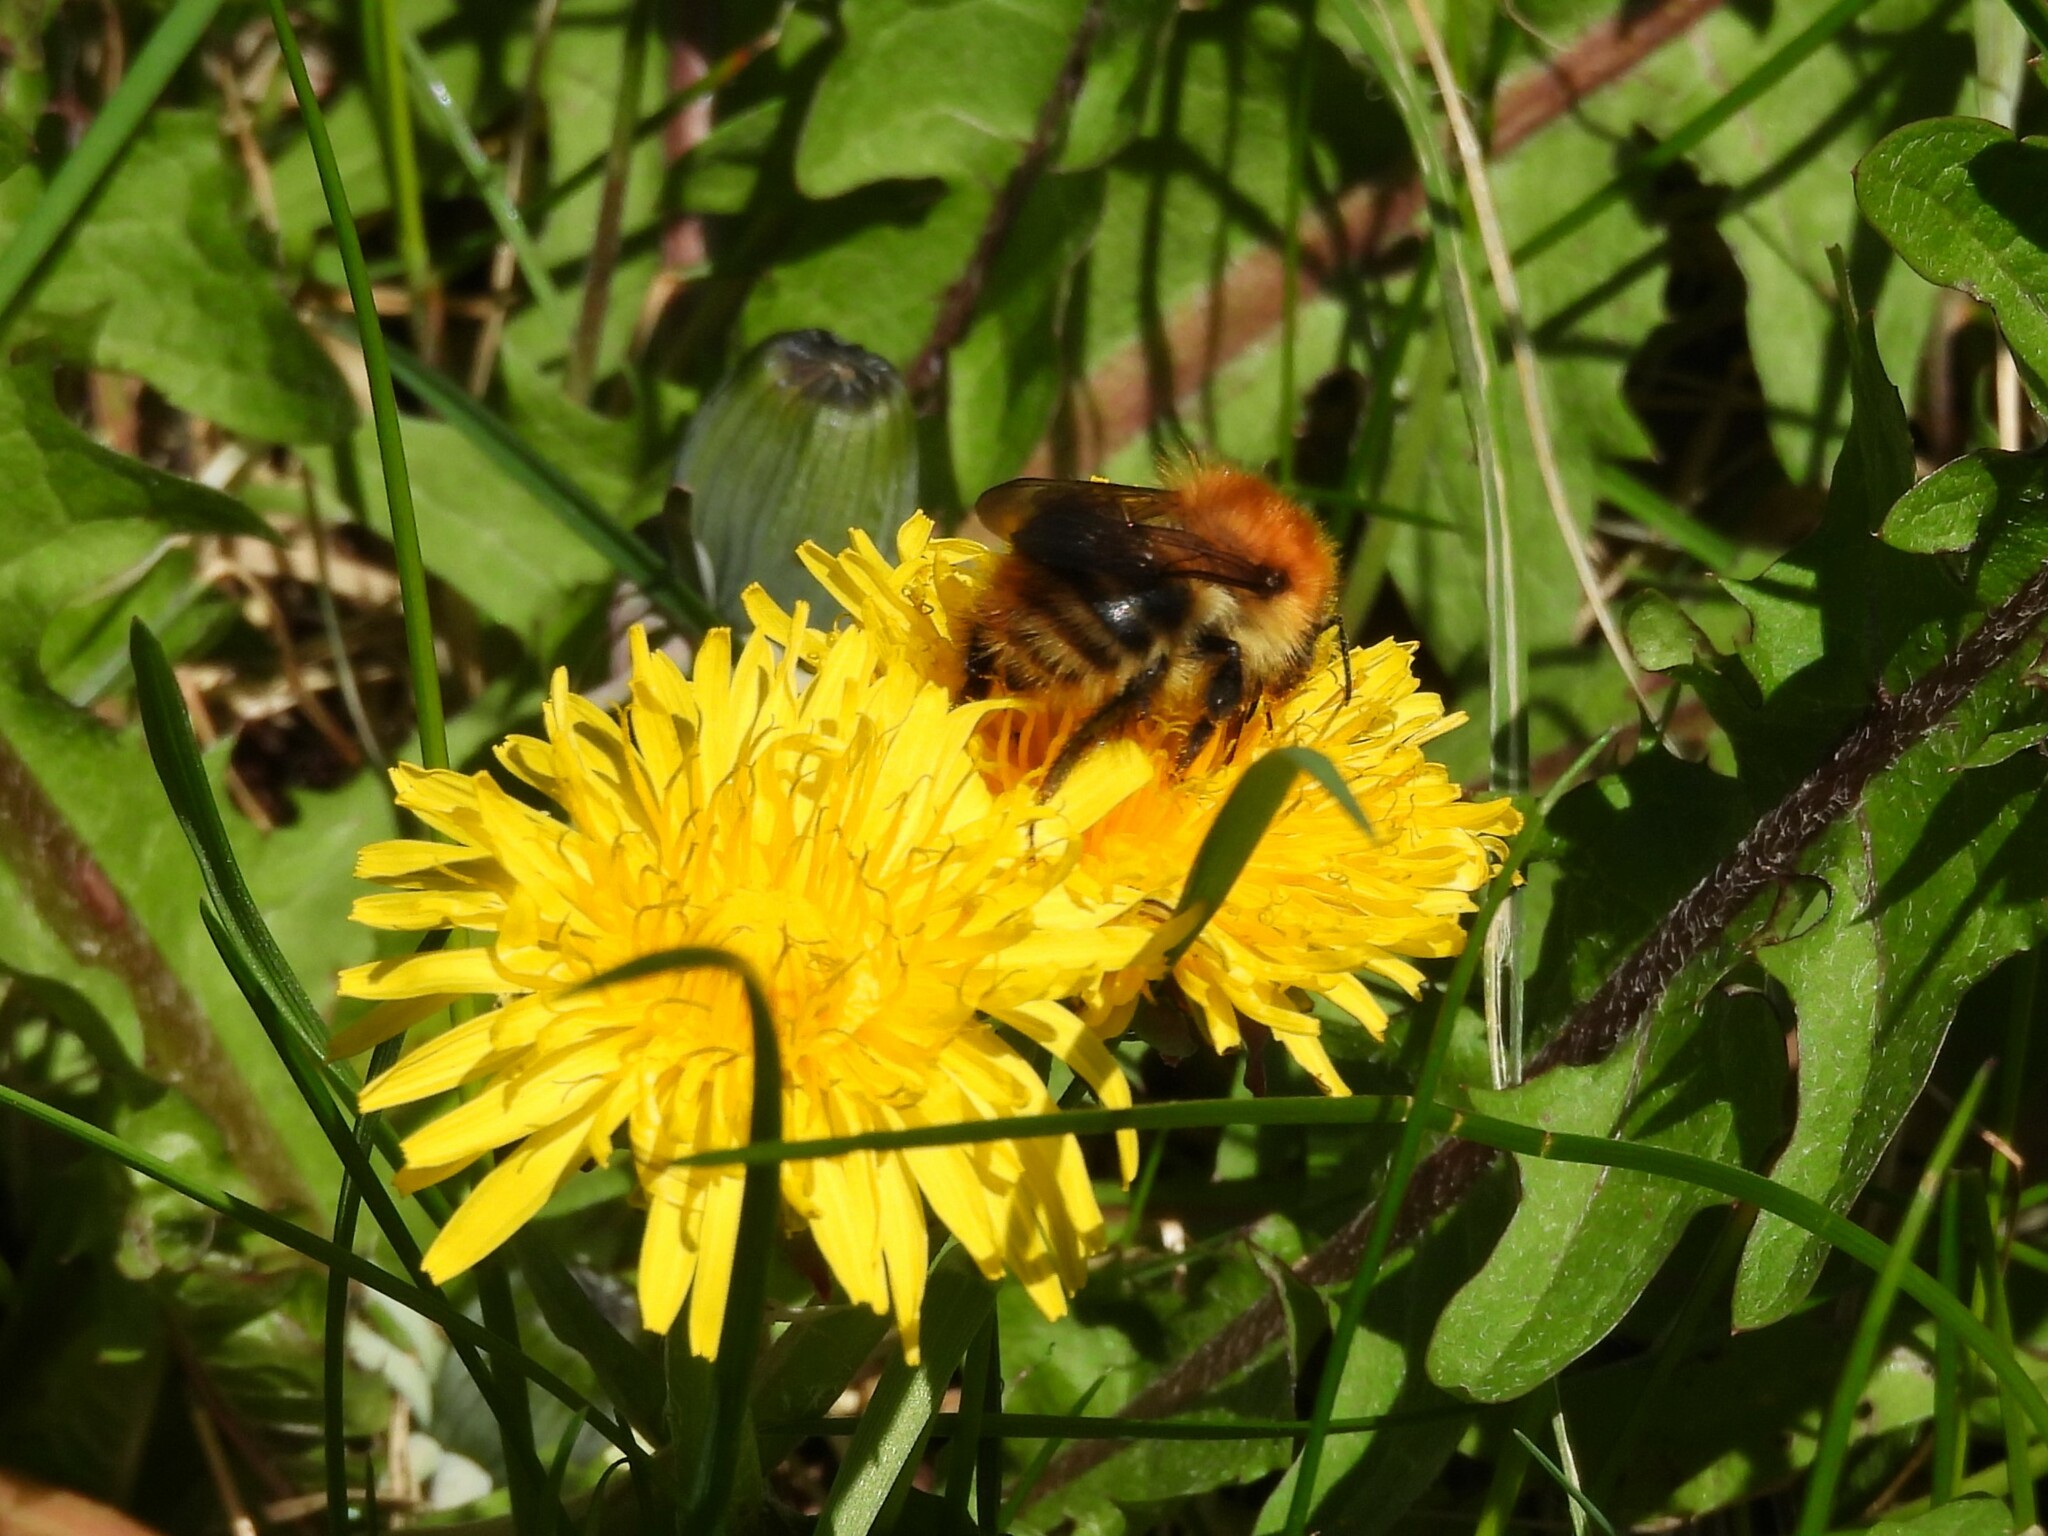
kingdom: Animalia
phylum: Arthropoda
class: Insecta
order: Hymenoptera
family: Apidae
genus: Bombus
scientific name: Bombus pascuorum
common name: Common carder bee
